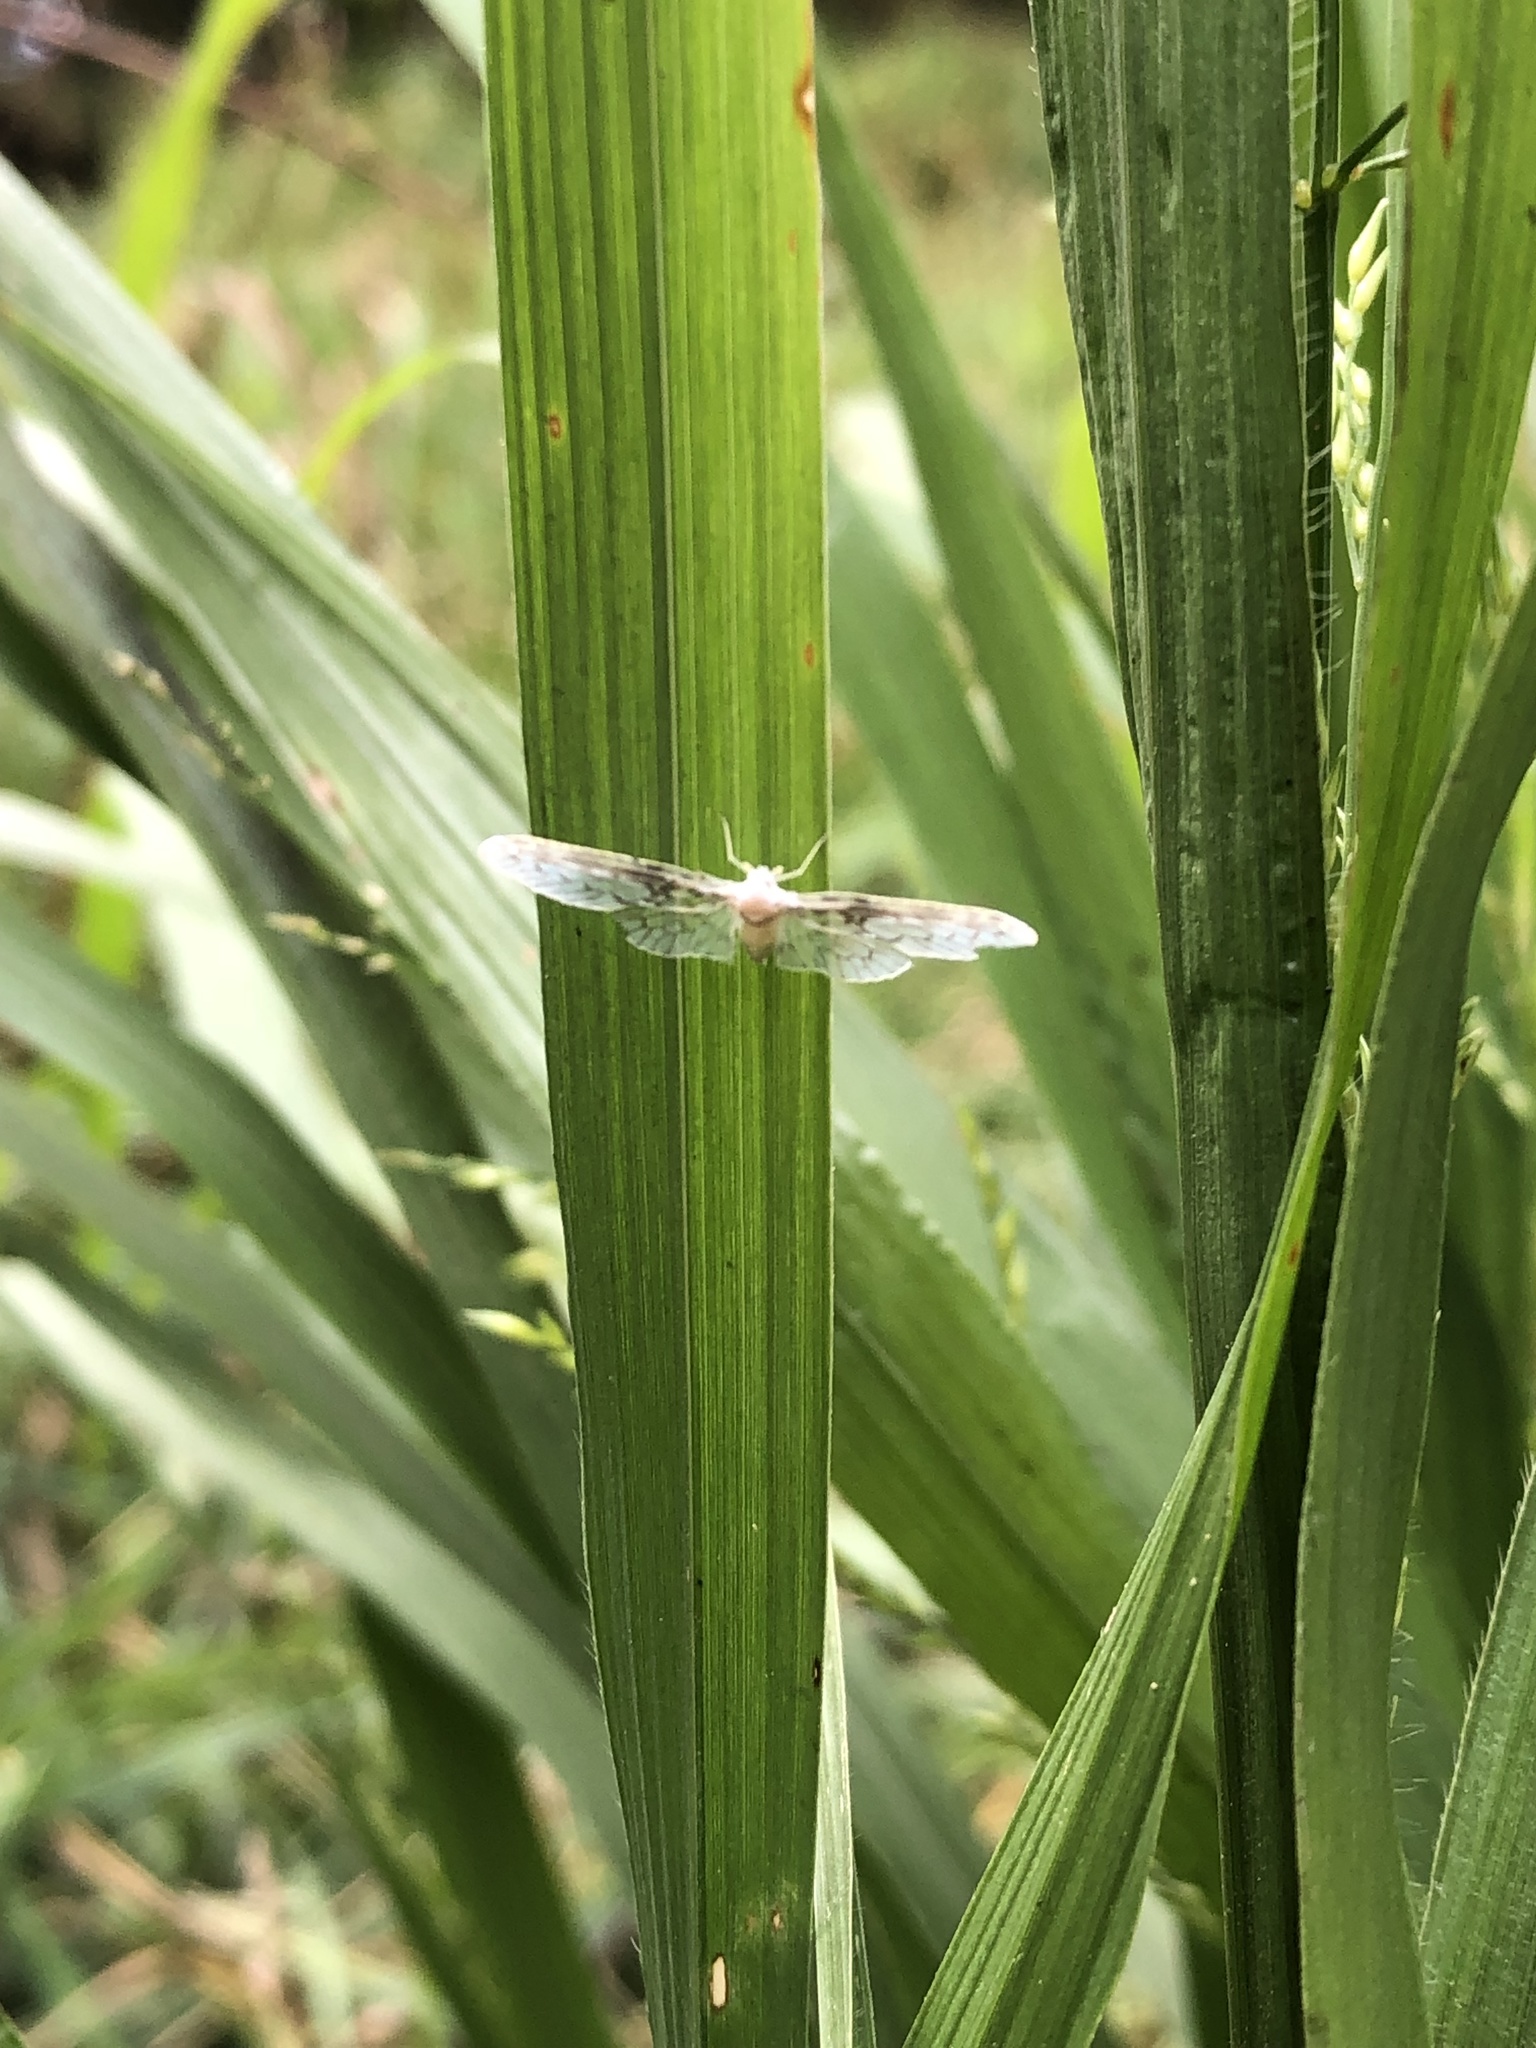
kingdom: Animalia
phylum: Arthropoda
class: Insecta
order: Hemiptera
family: Derbidae
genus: Paramysidia
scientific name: Paramysidia mississippiensis
